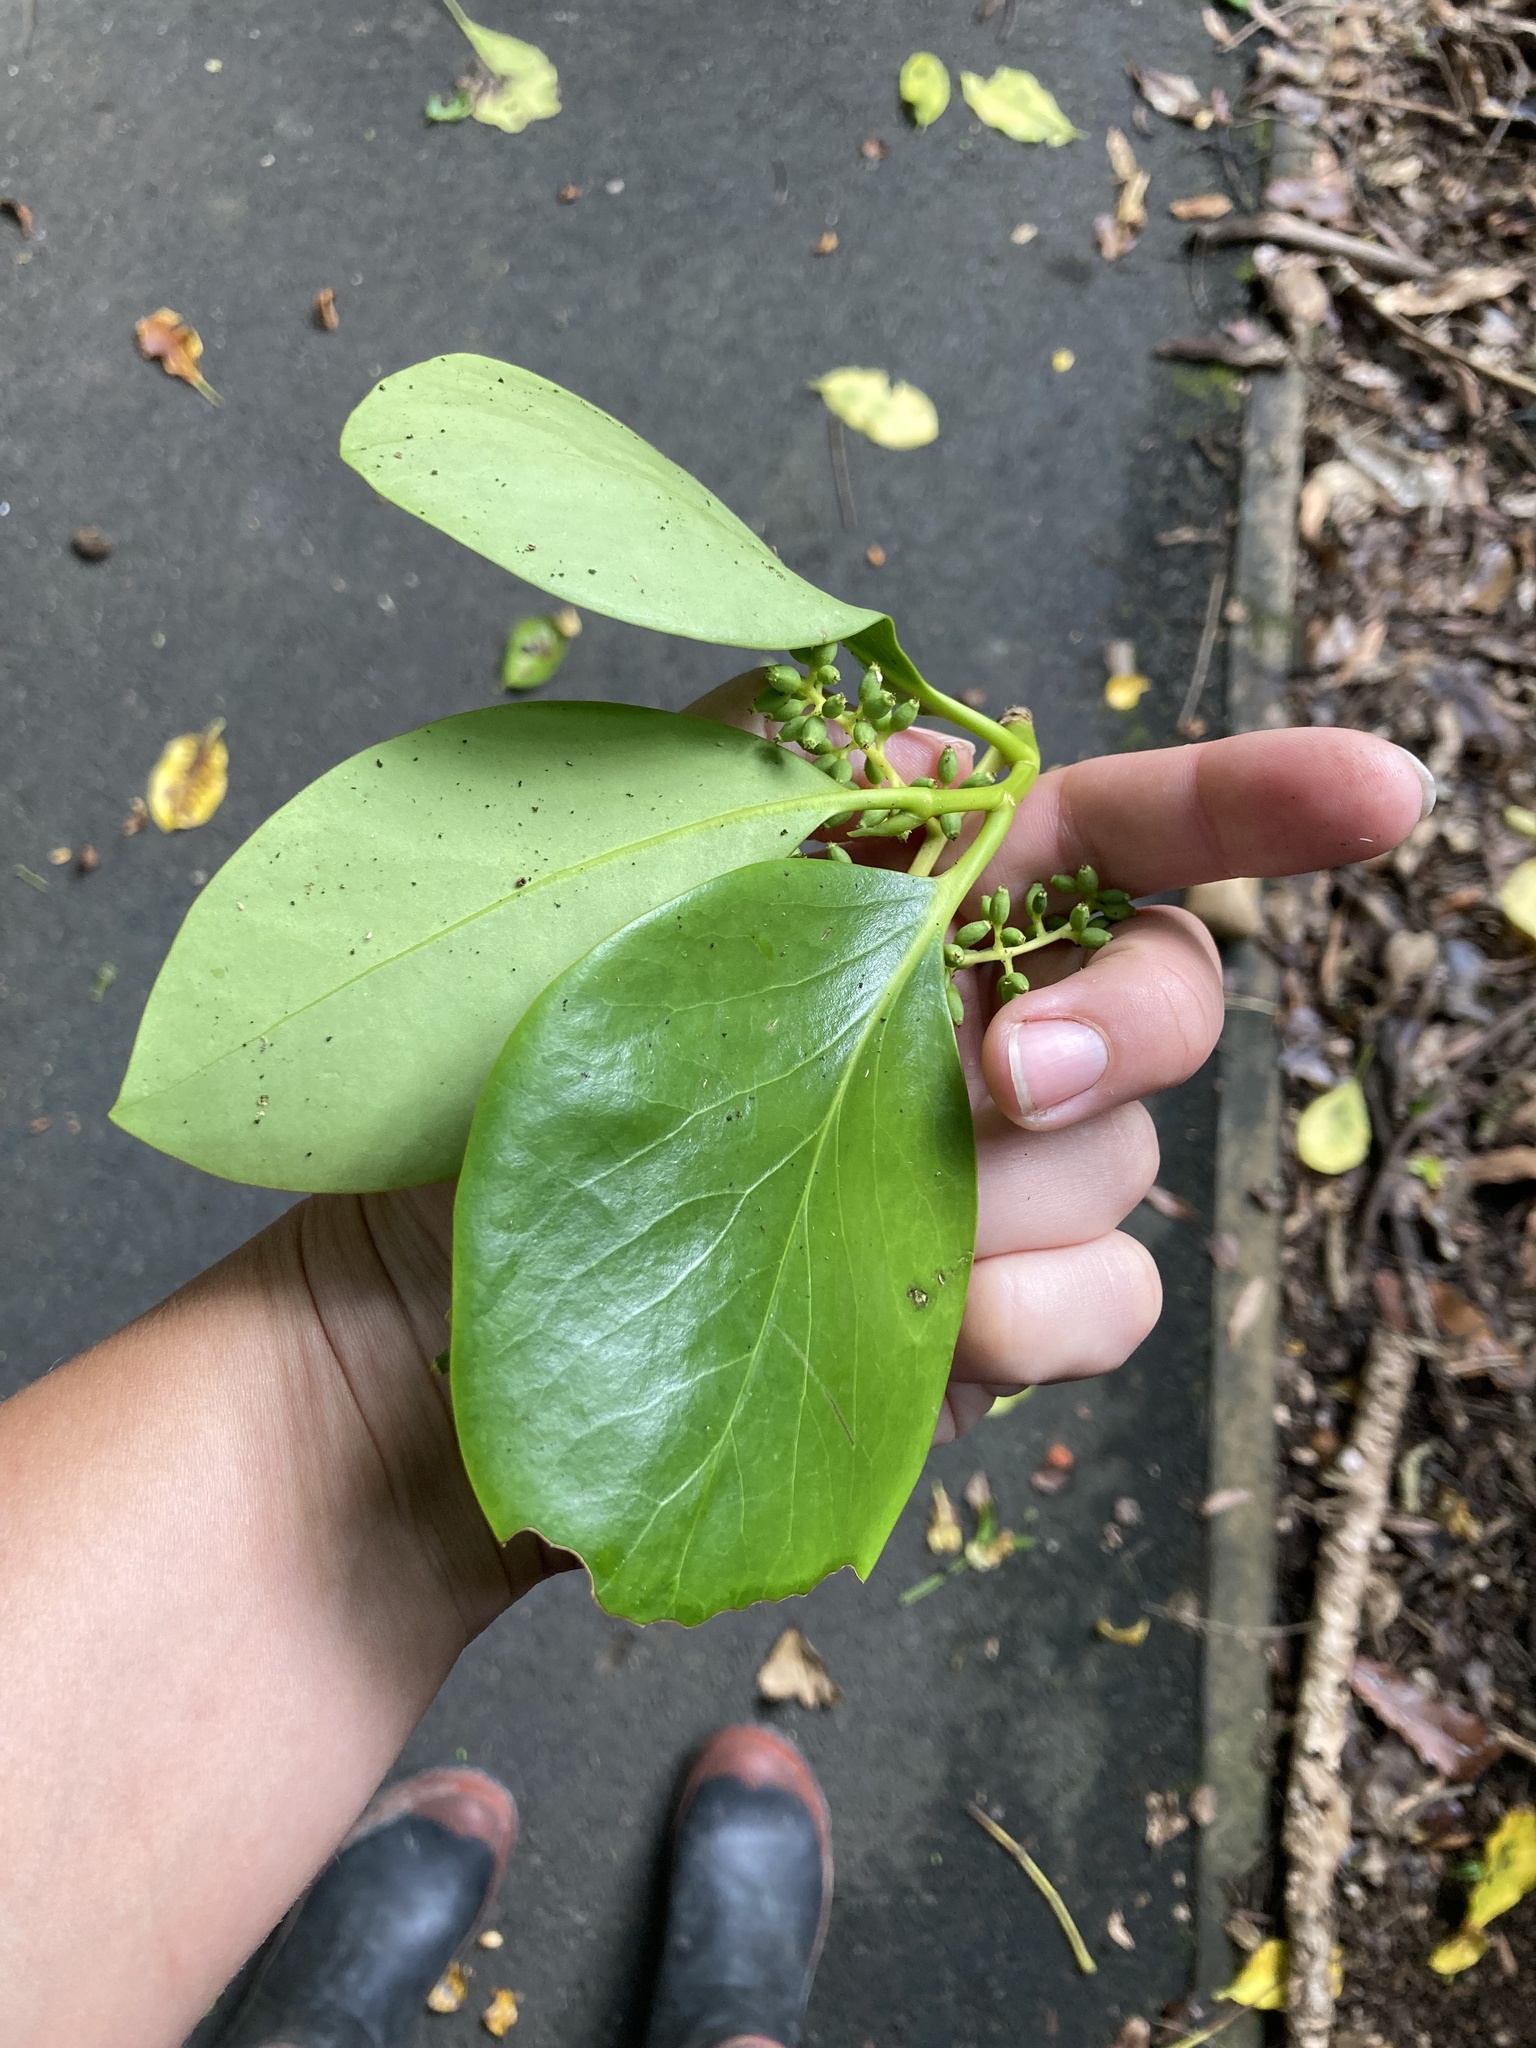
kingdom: Plantae
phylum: Tracheophyta
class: Magnoliopsida
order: Apiales
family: Griseliniaceae
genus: Griselinia
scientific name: Griselinia lucida
